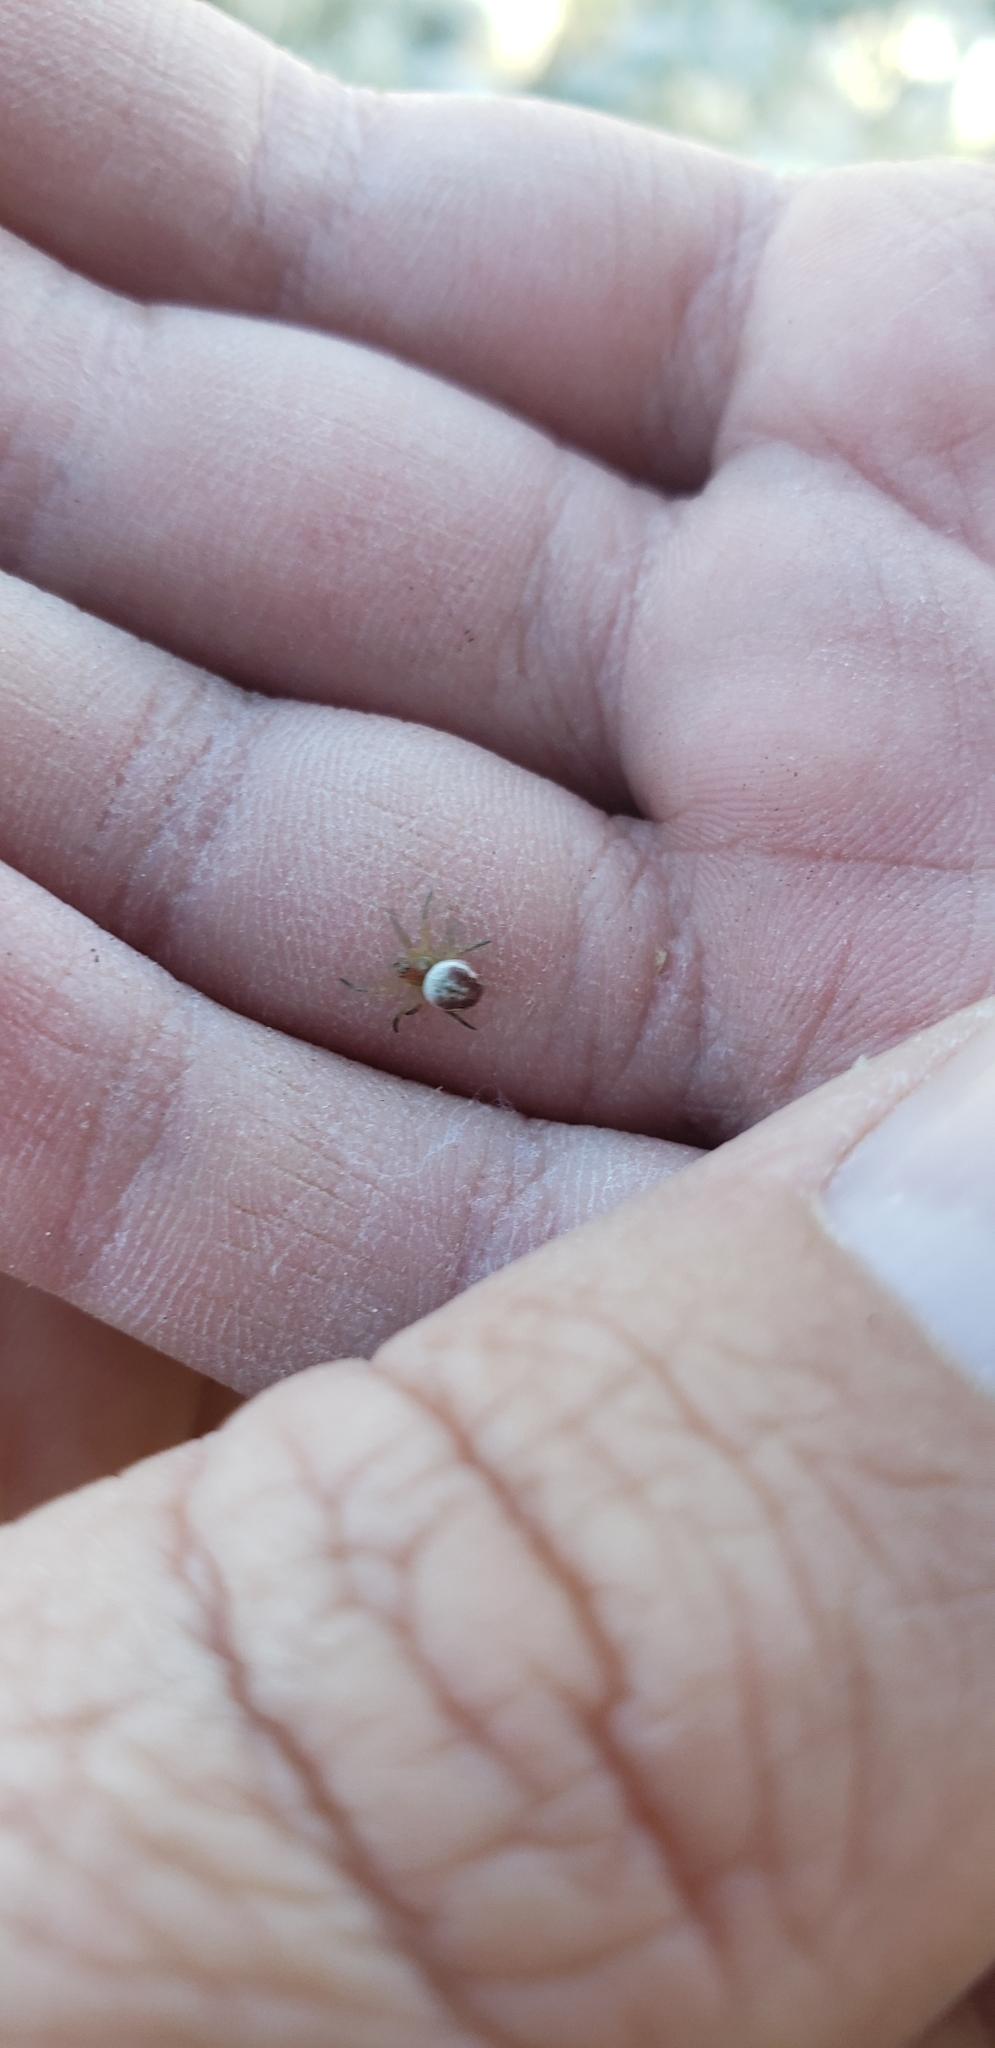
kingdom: Animalia
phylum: Arthropoda
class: Arachnida
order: Araneae
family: Araneidae
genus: Araniella
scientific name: Araniella displicata
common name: Sixspotted orb weaver
